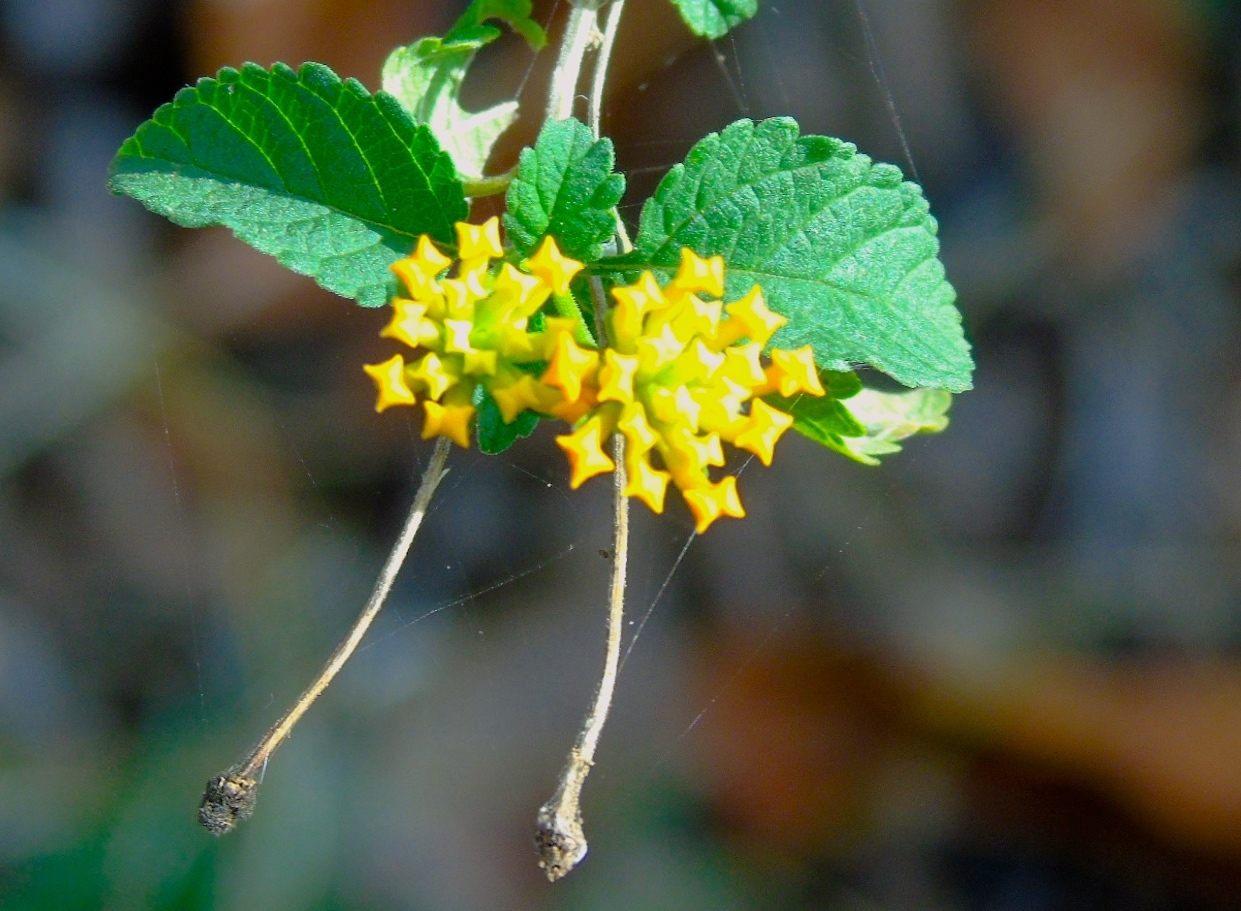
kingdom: Plantae
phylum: Tracheophyta
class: Magnoliopsida
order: Lamiales
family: Verbenaceae
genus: Lantana
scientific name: Lantana camara
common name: Lantana
